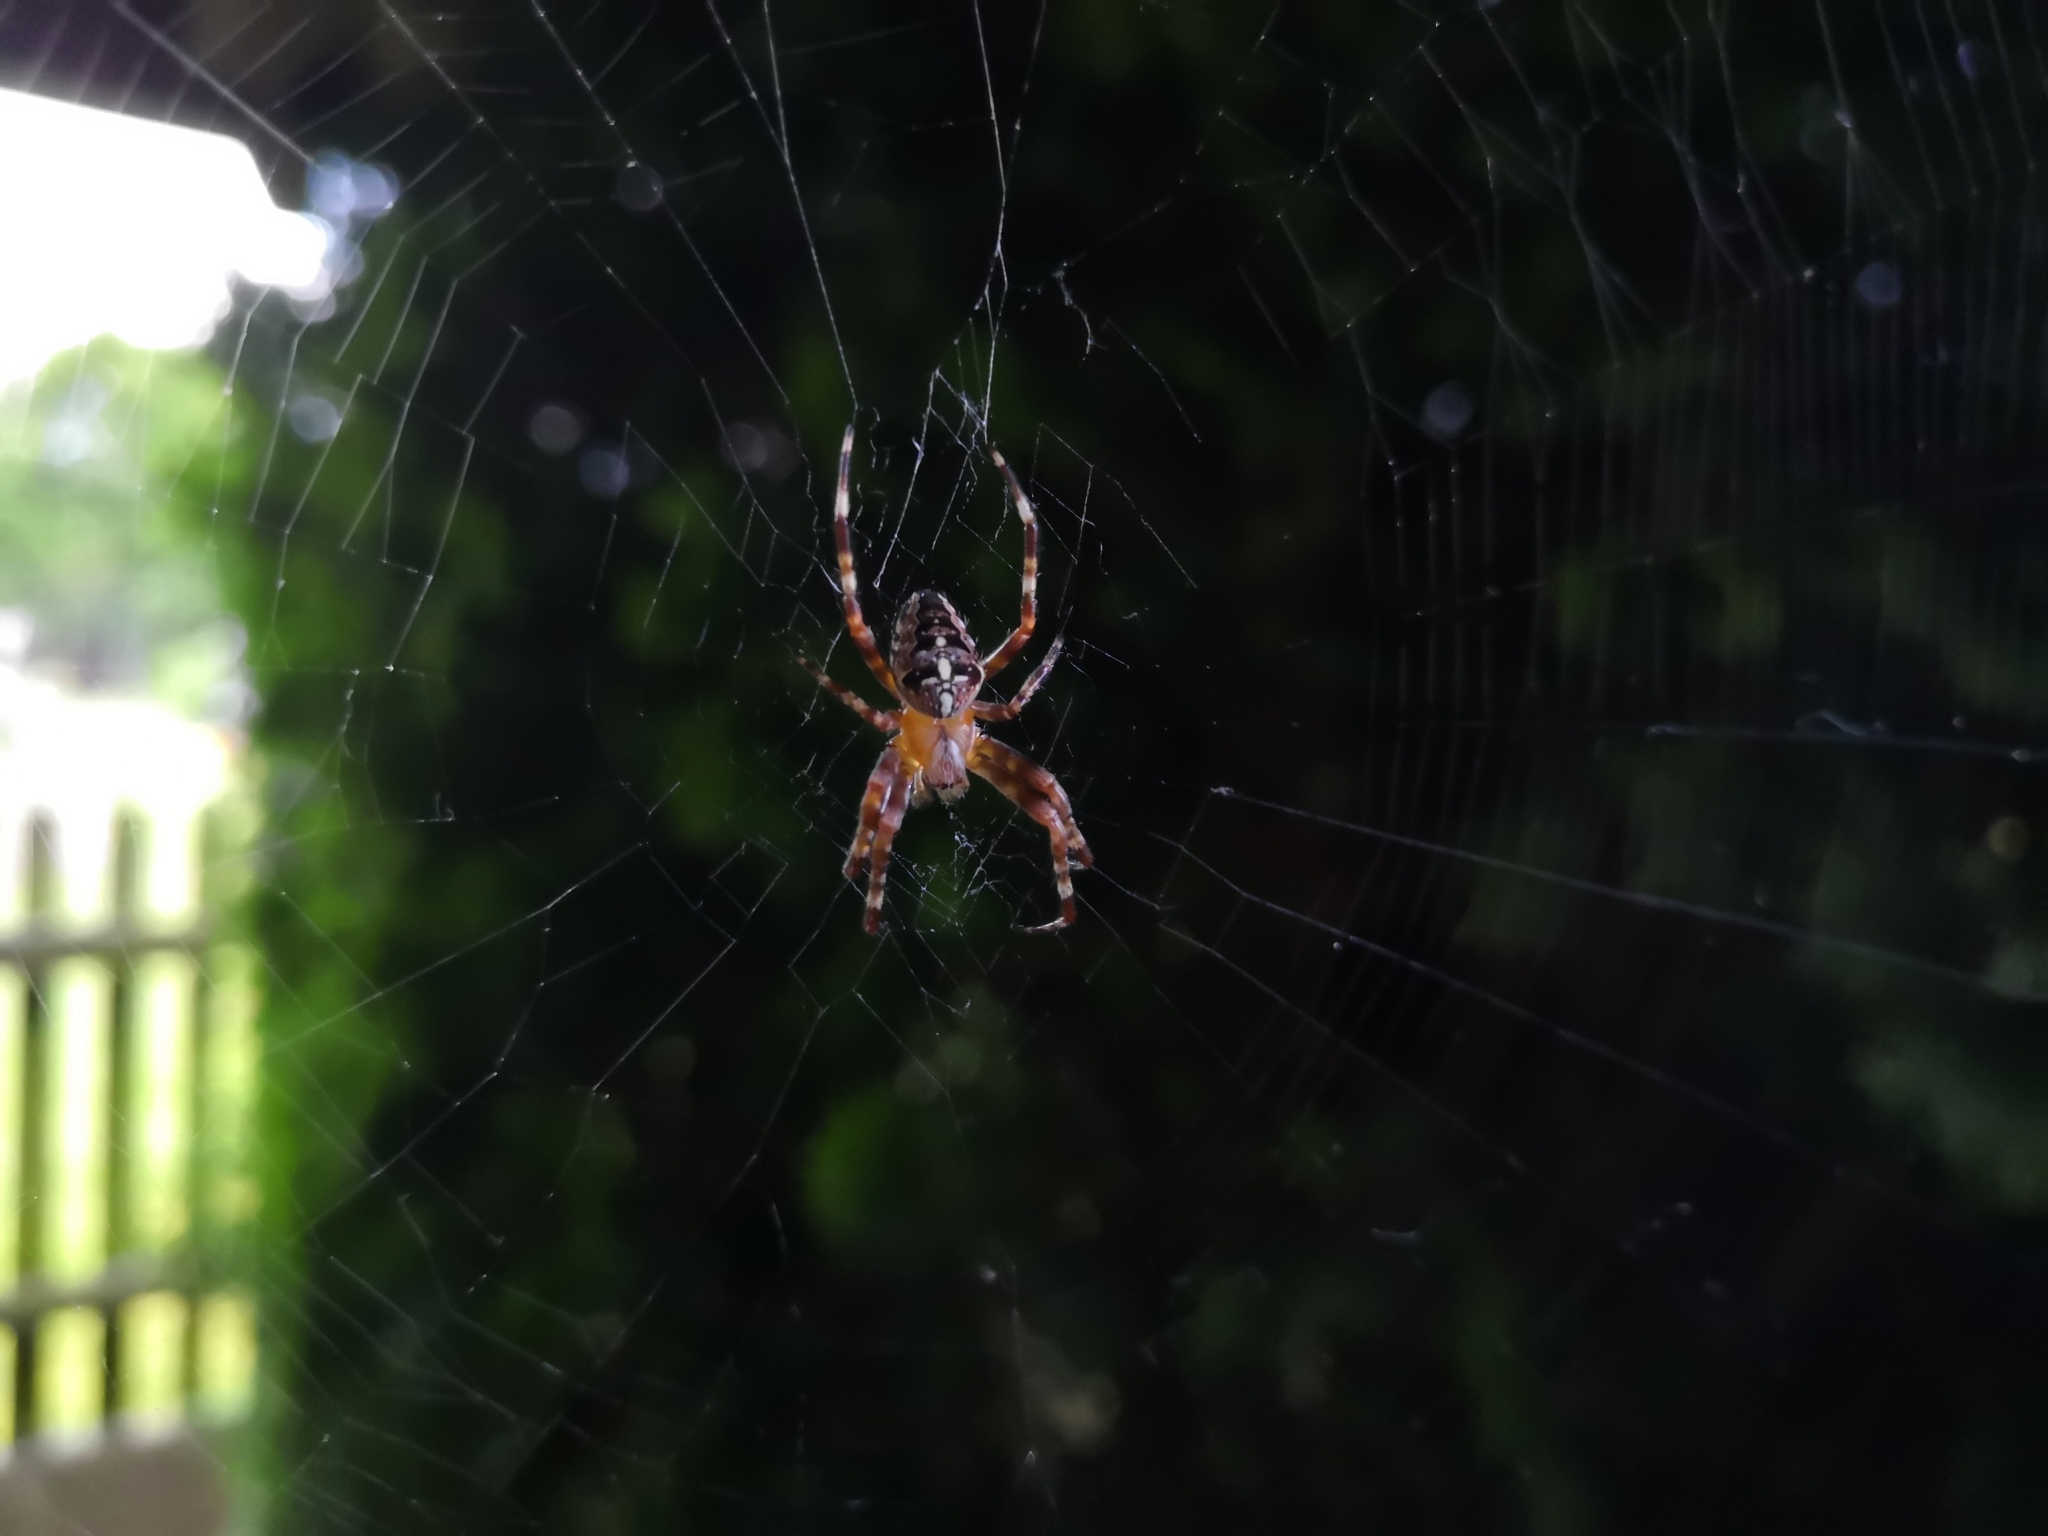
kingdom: Animalia
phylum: Arthropoda
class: Arachnida
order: Araneae
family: Araneidae
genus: Araneus
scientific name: Araneus diadematus
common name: Cross orbweaver
